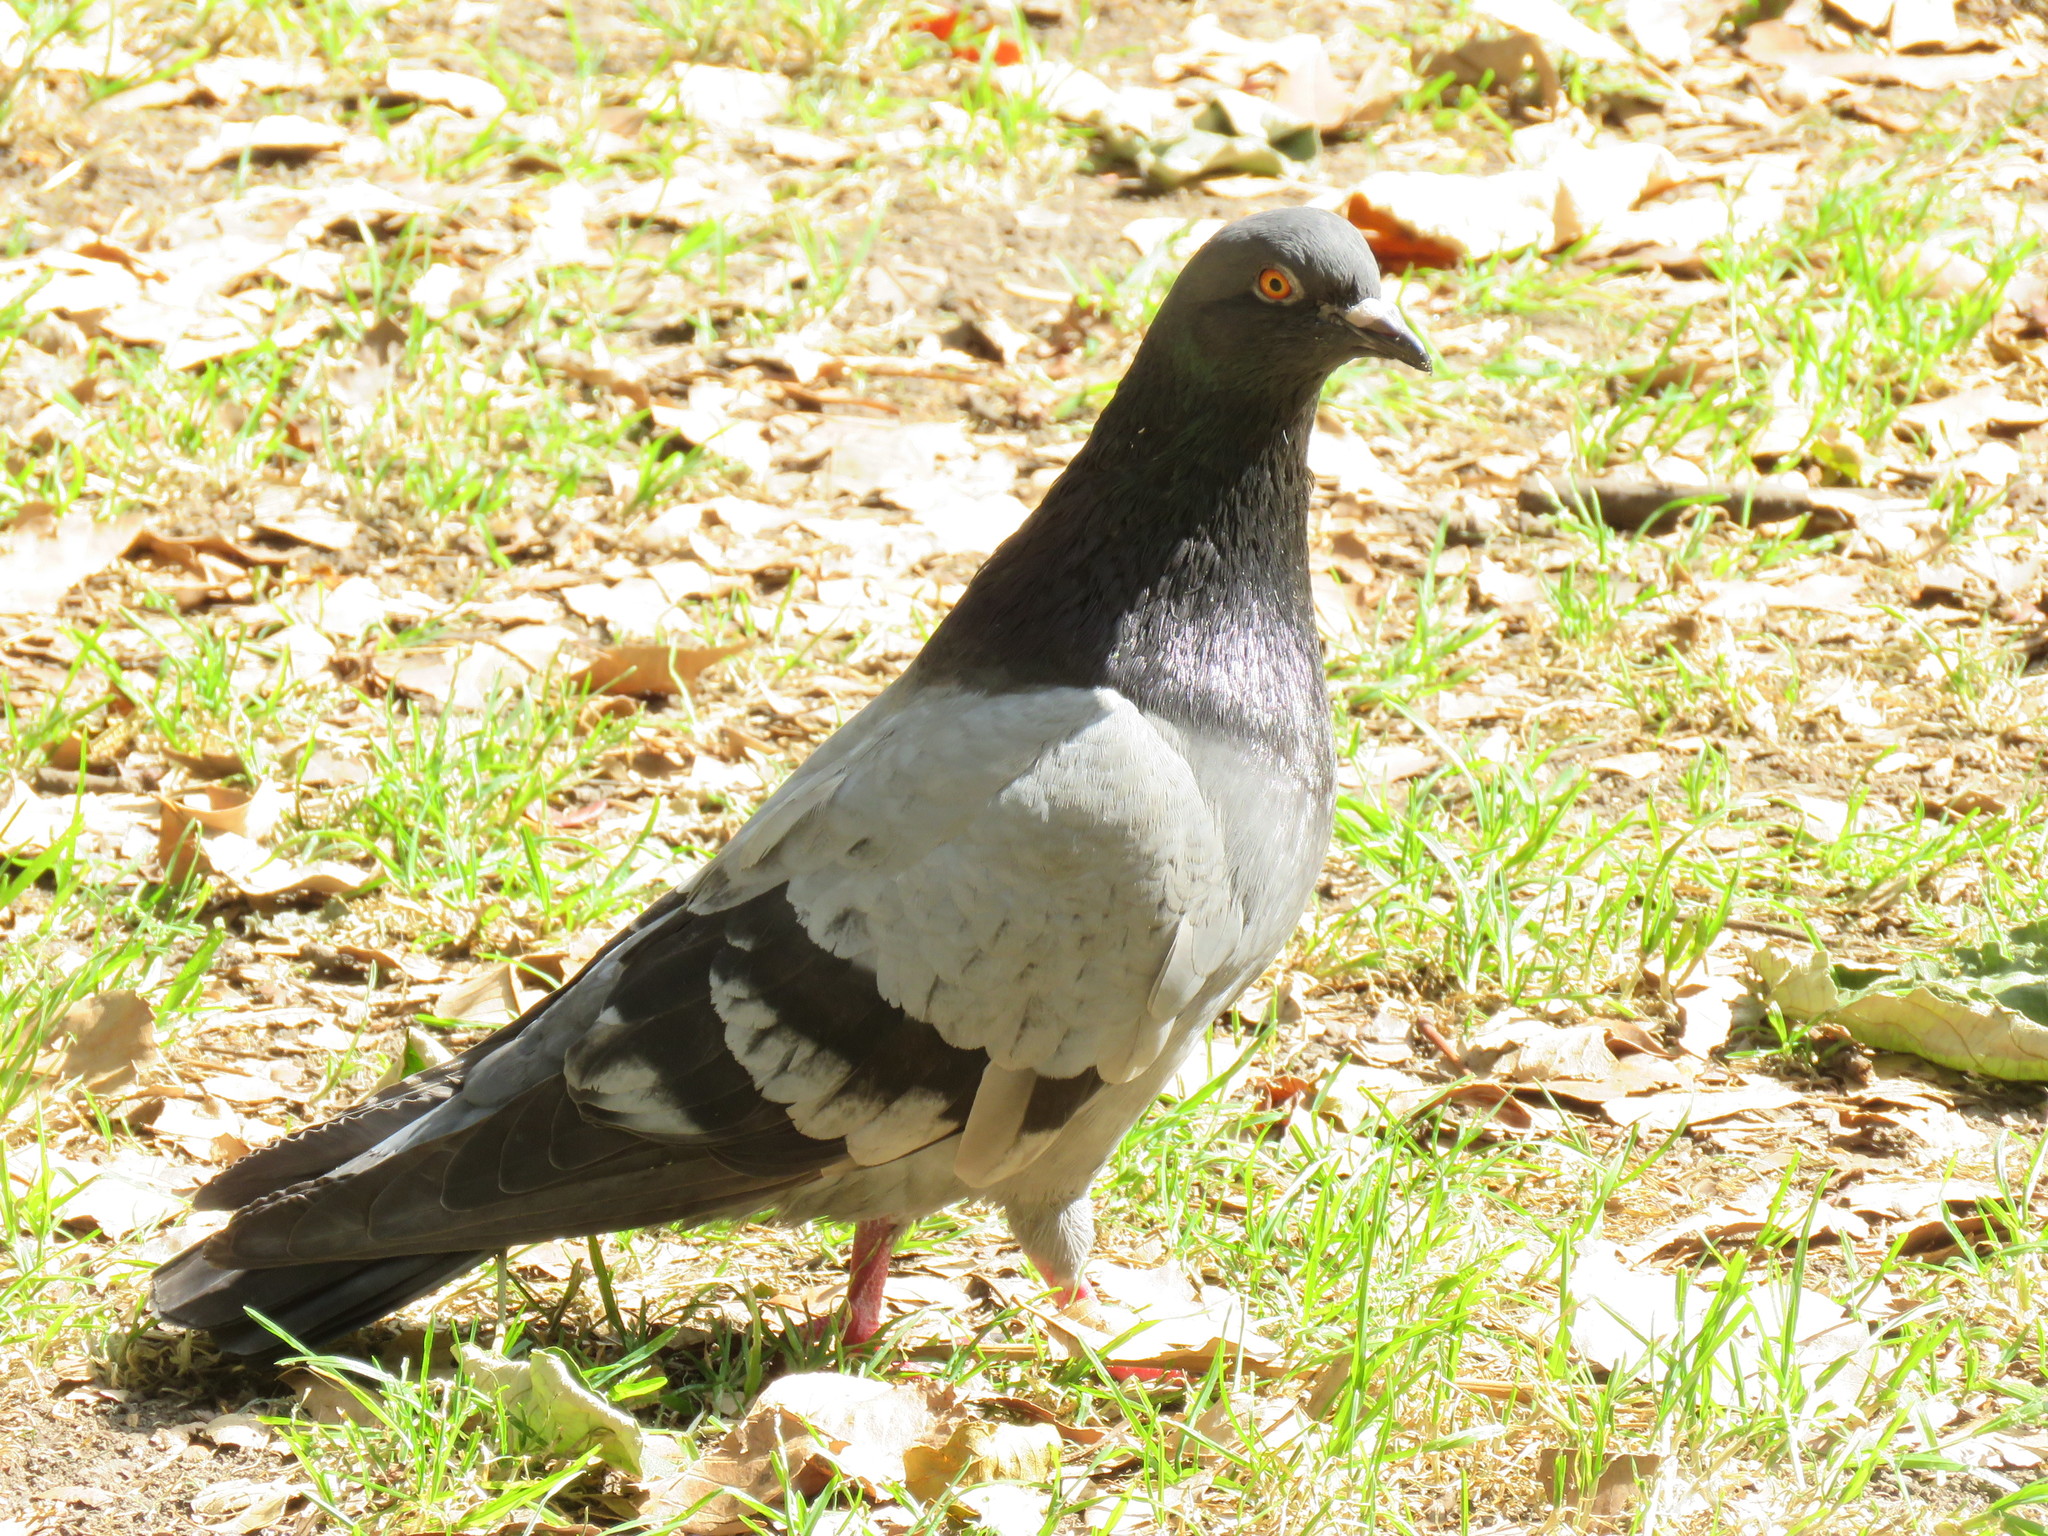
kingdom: Animalia
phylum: Chordata
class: Aves
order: Columbiformes
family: Columbidae
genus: Columba
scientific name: Columba livia
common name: Rock pigeon
